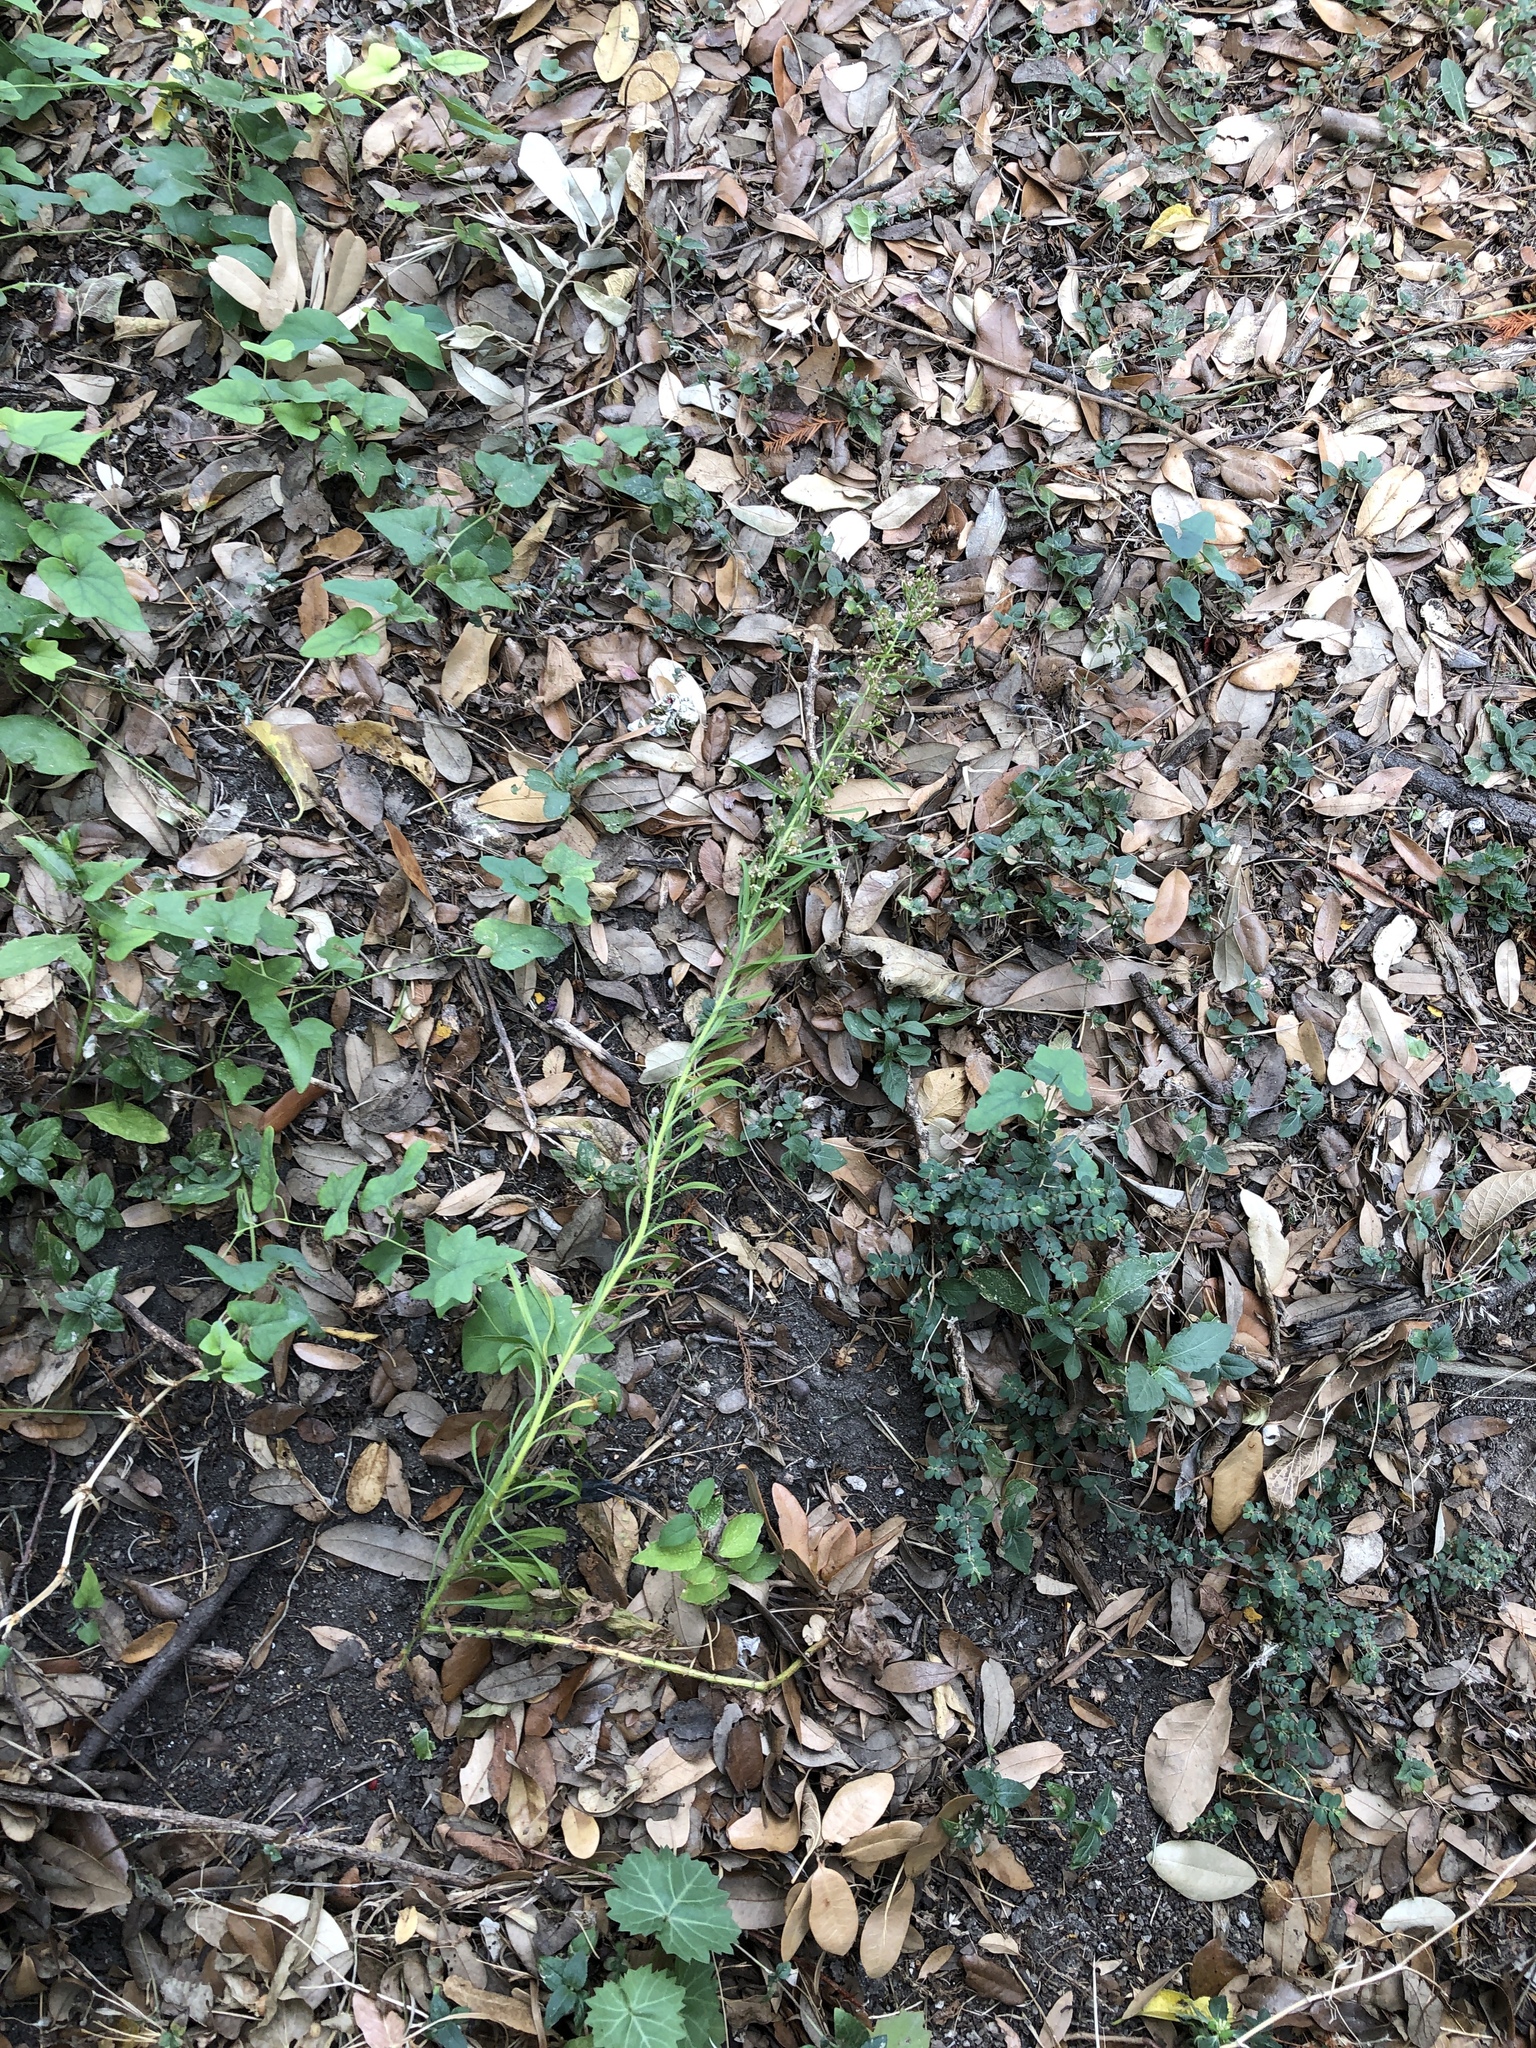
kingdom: Plantae
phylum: Tracheophyta
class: Magnoliopsida
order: Asterales
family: Asteraceae
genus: Erigeron
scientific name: Erigeron canadensis
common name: Canadian fleabane
